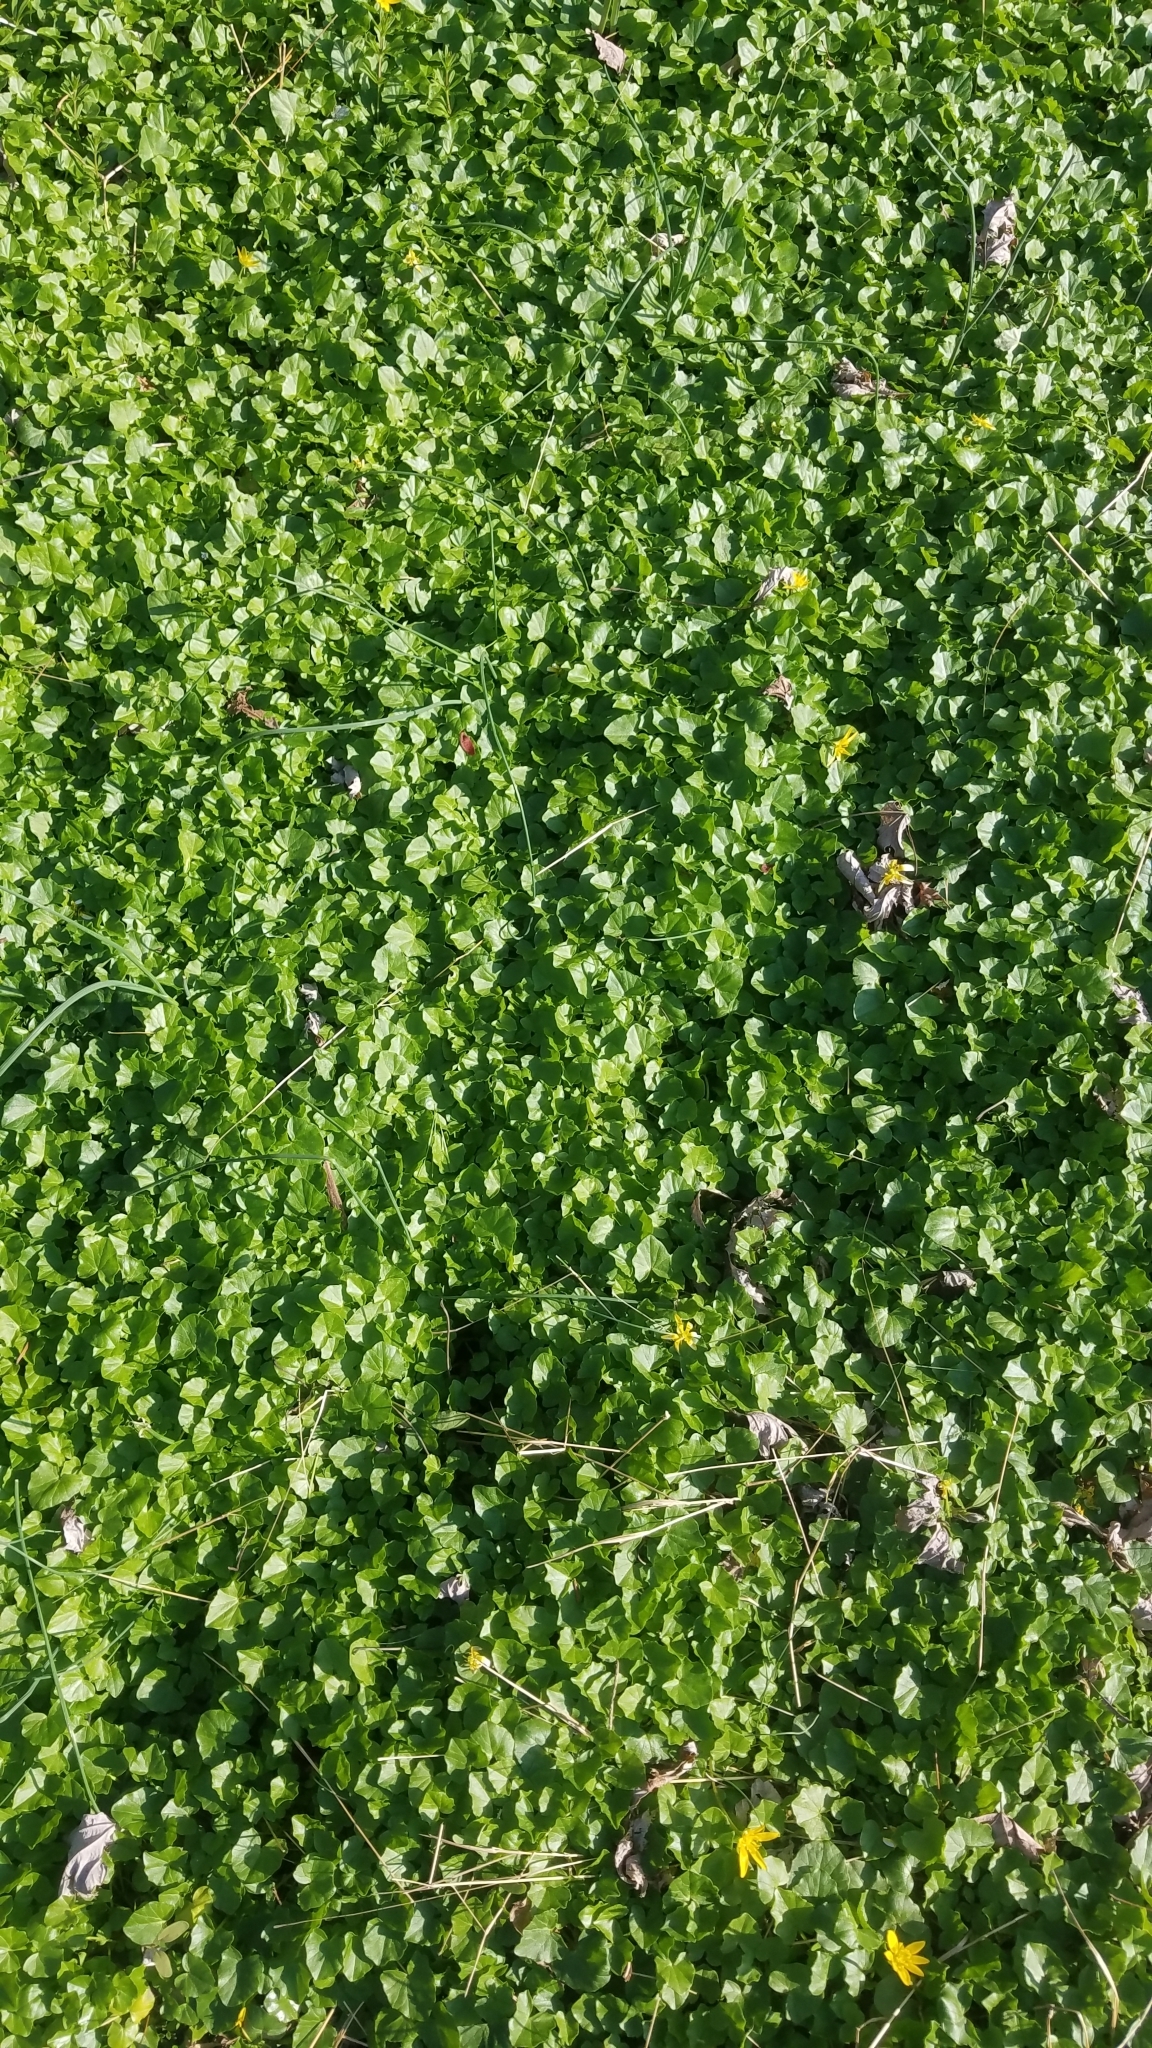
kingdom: Plantae
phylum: Tracheophyta
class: Magnoliopsida
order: Ranunculales
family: Ranunculaceae
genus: Ficaria
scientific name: Ficaria verna
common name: Lesser celandine
